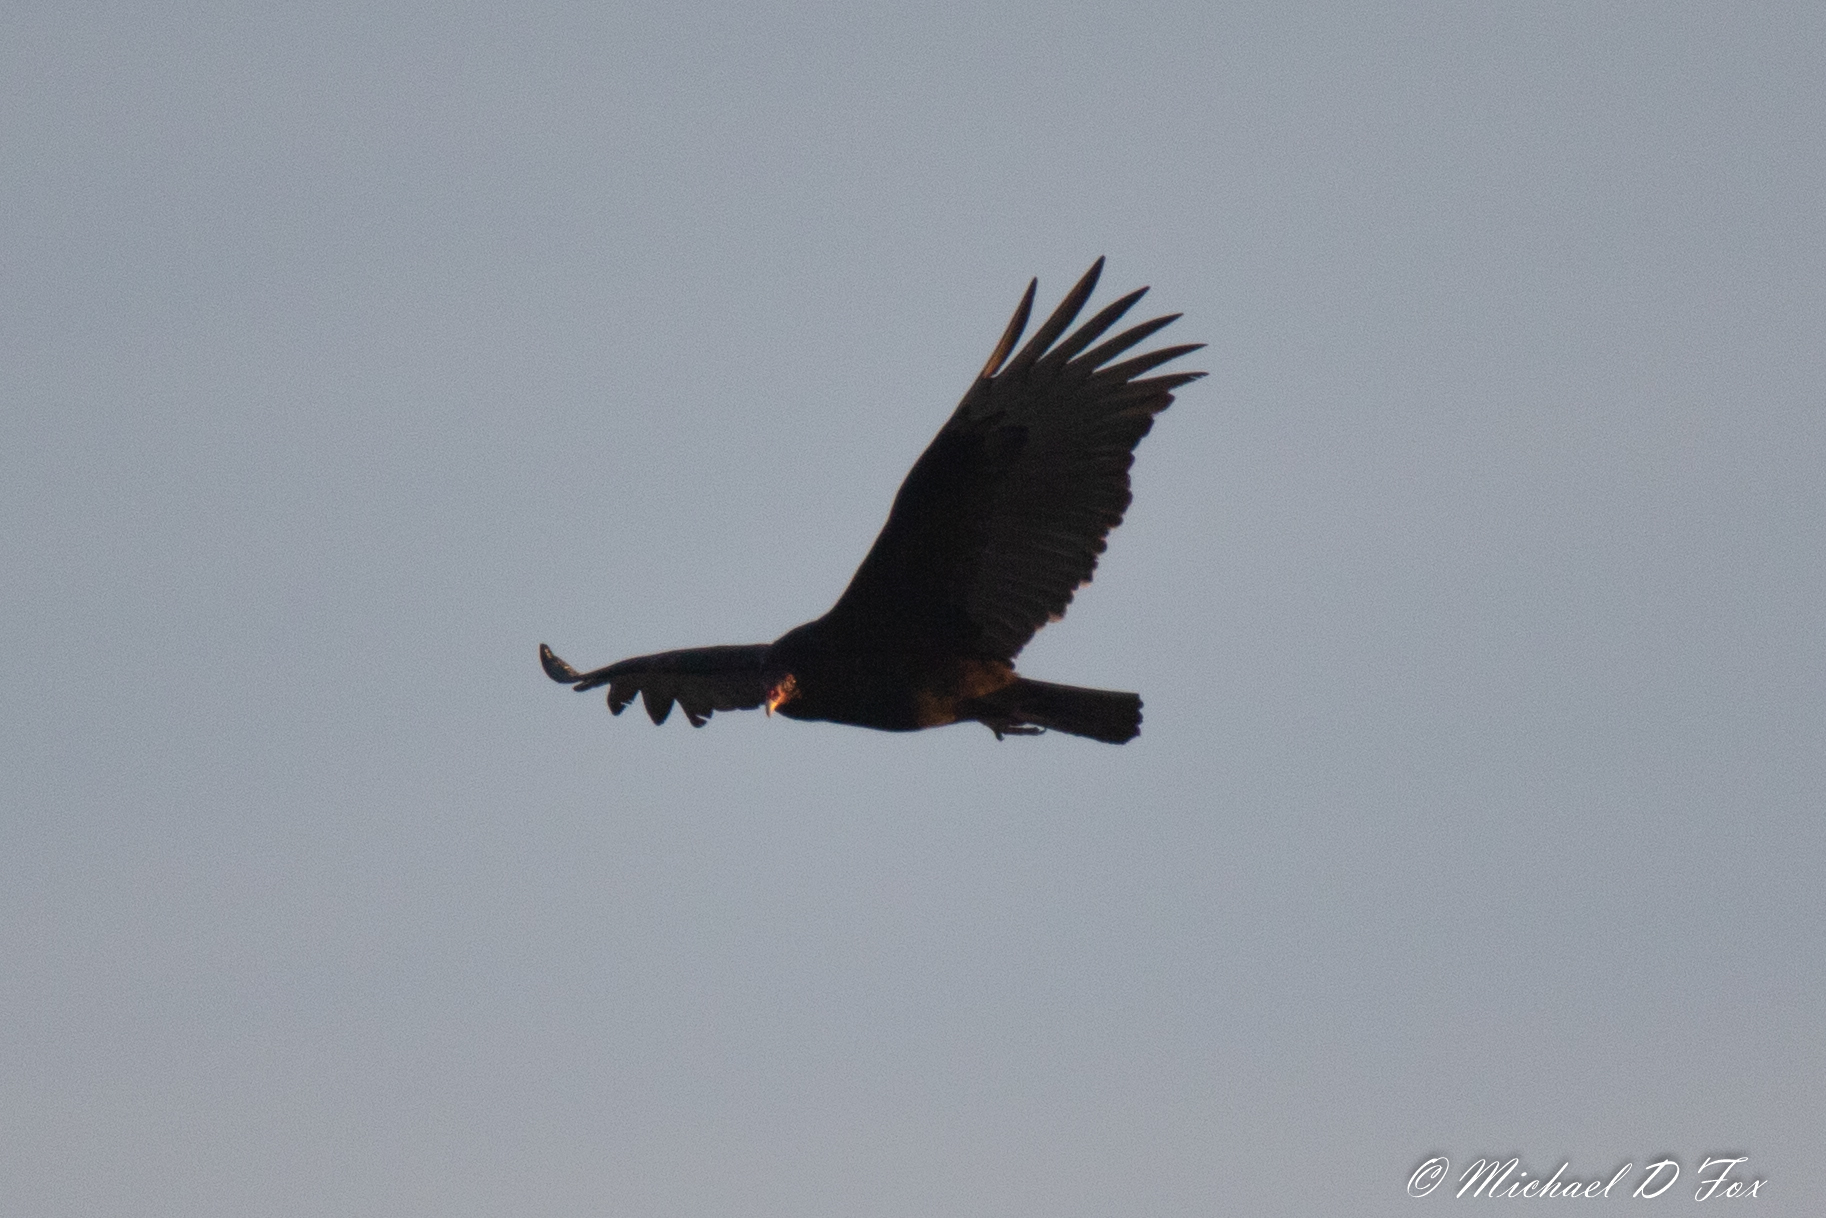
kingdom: Animalia
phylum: Chordata
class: Aves
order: Accipitriformes
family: Cathartidae
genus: Cathartes
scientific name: Cathartes aura
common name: Turkey vulture
